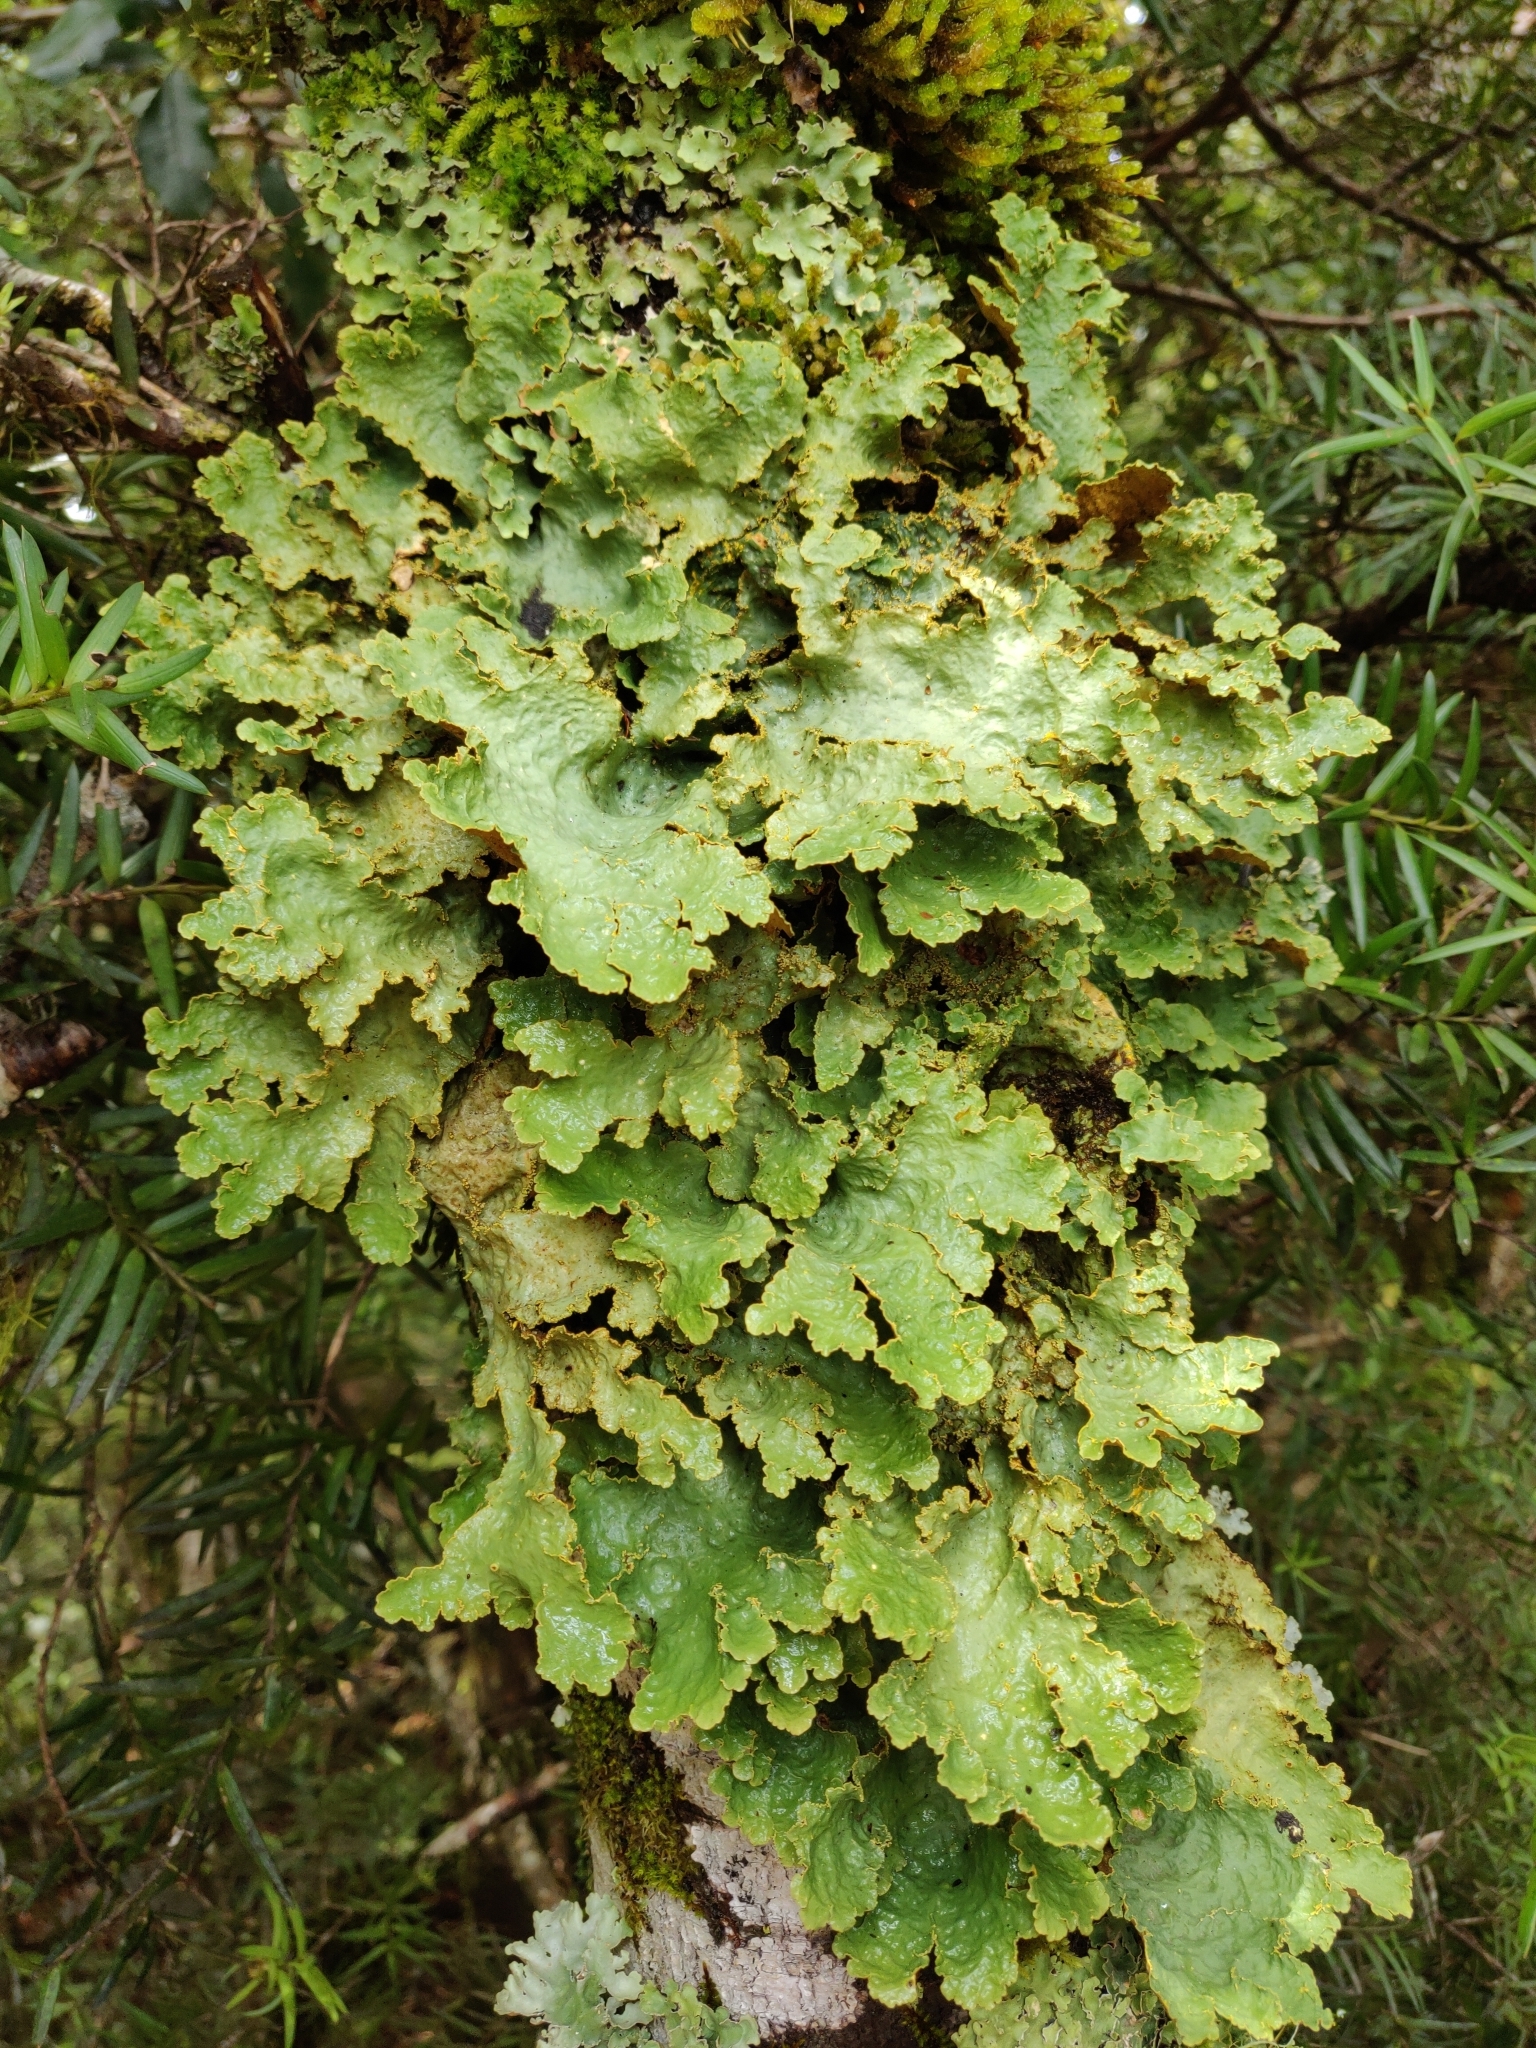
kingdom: Fungi
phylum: Ascomycota
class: Lecanoromycetes
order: Peltigerales
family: Lobariaceae
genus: Yarrumia
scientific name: Yarrumia colensoi
